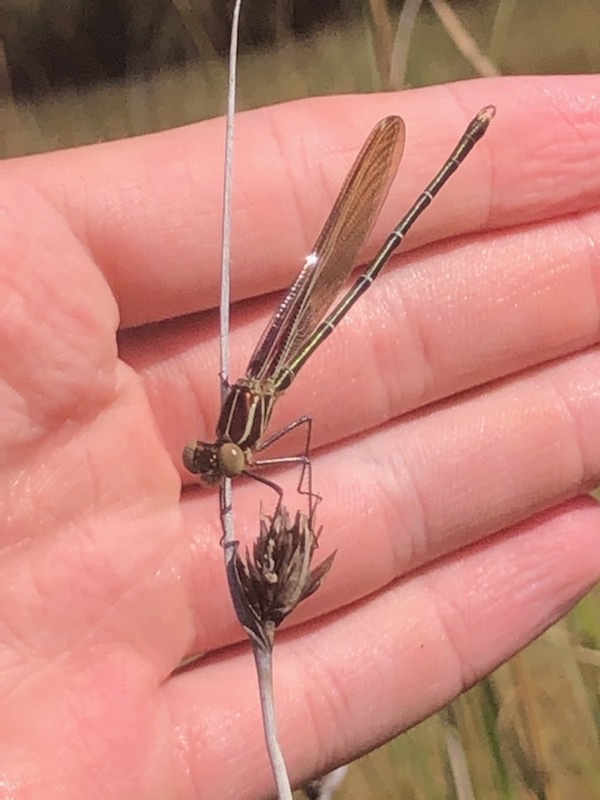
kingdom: Animalia
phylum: Arthropoda
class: Insecta
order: Odonata
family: Calopterygidae
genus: Hetaerina
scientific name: Hetaerina americana
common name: American rubyspot
